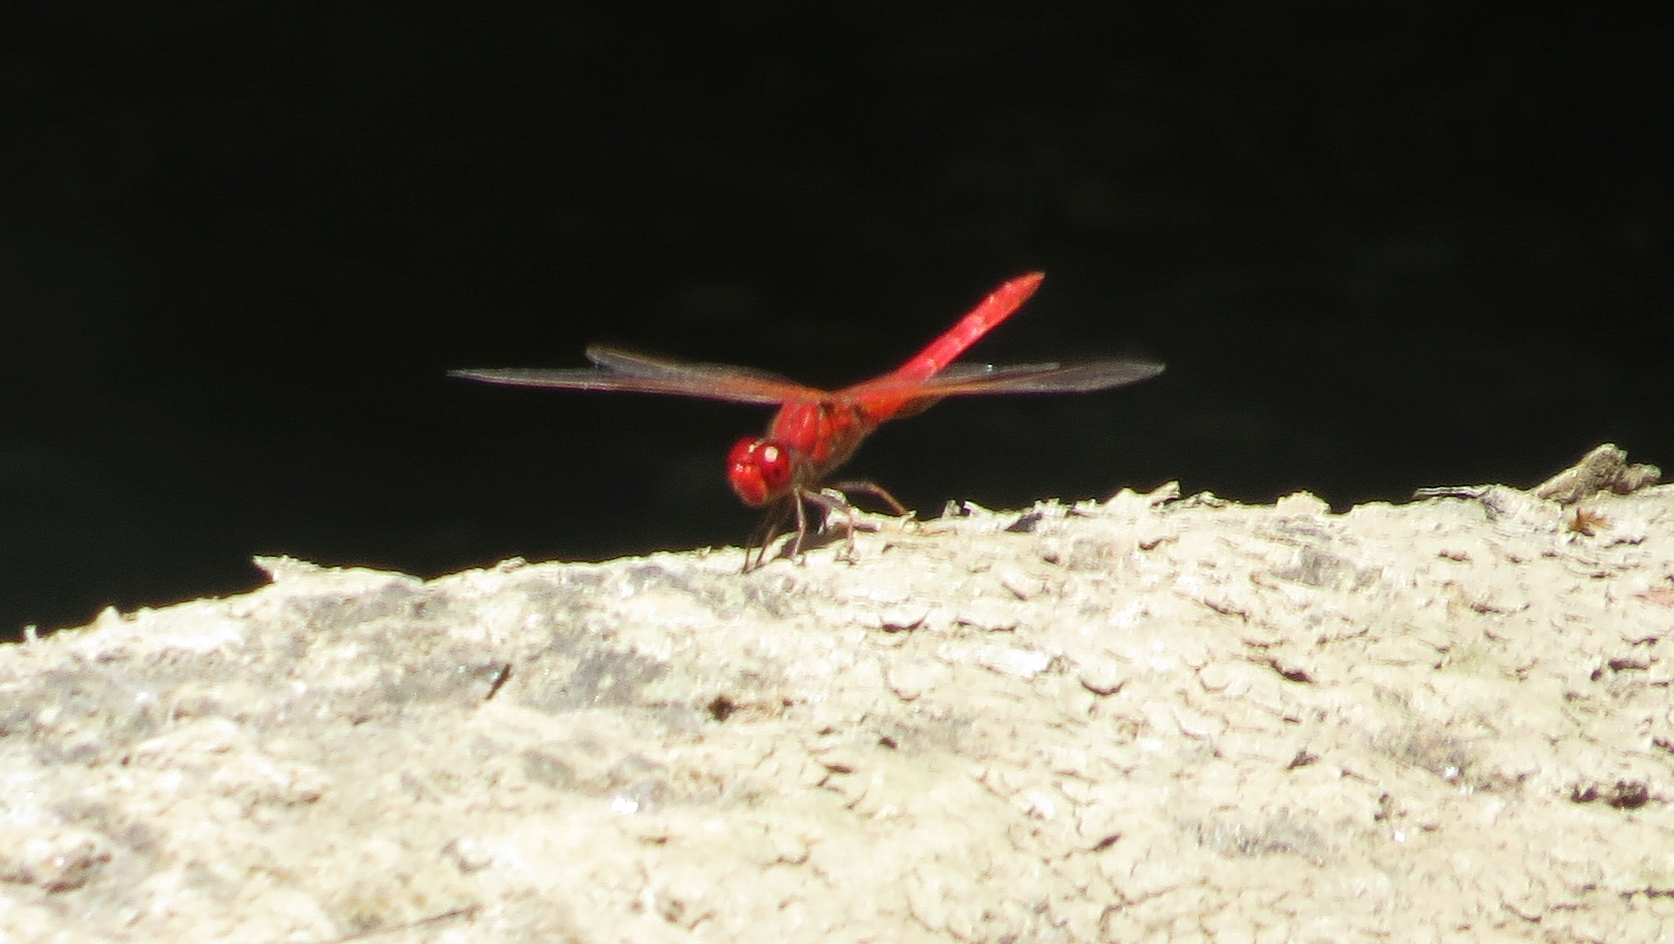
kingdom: Animalia
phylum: Arthropoda
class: Insecta
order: Odonata
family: Libellulidae
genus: Diplacodes
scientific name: Diplacodes haematodes
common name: Scarlet percher
